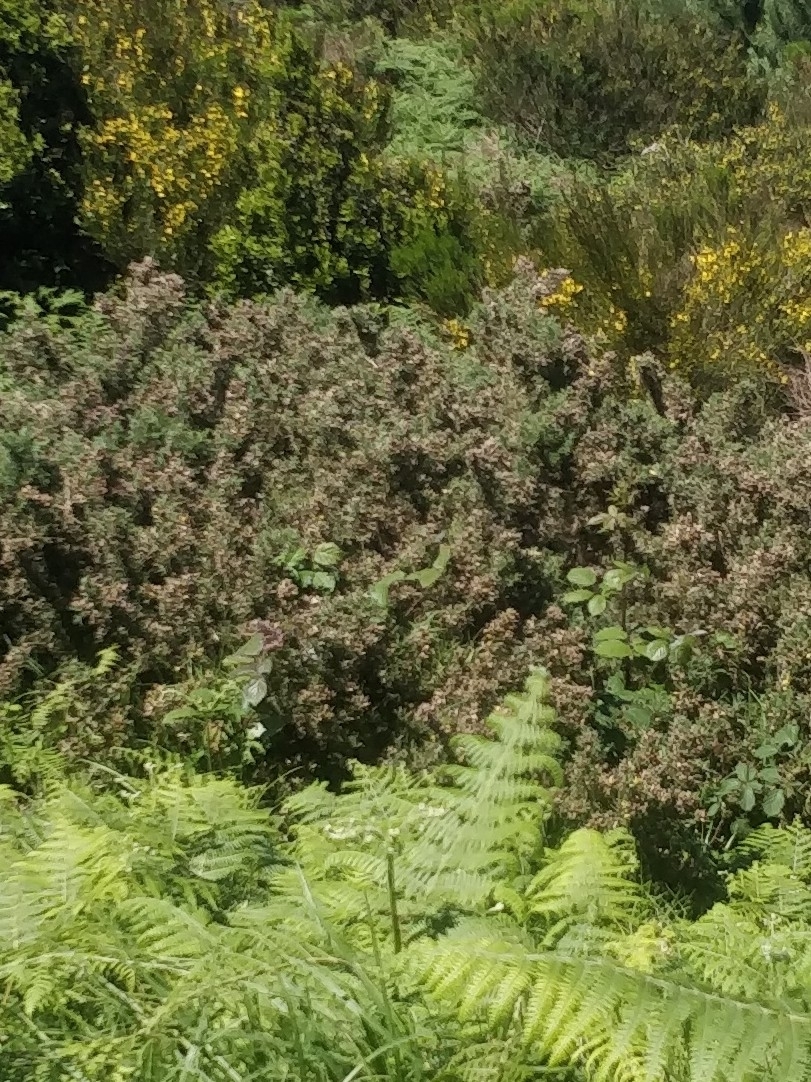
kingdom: Plantae
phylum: Tracheophyta
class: Magnoliopsida
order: Fabales
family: Fabaceae
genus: Ulex
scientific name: Ulex europaeus
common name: Common gorse
